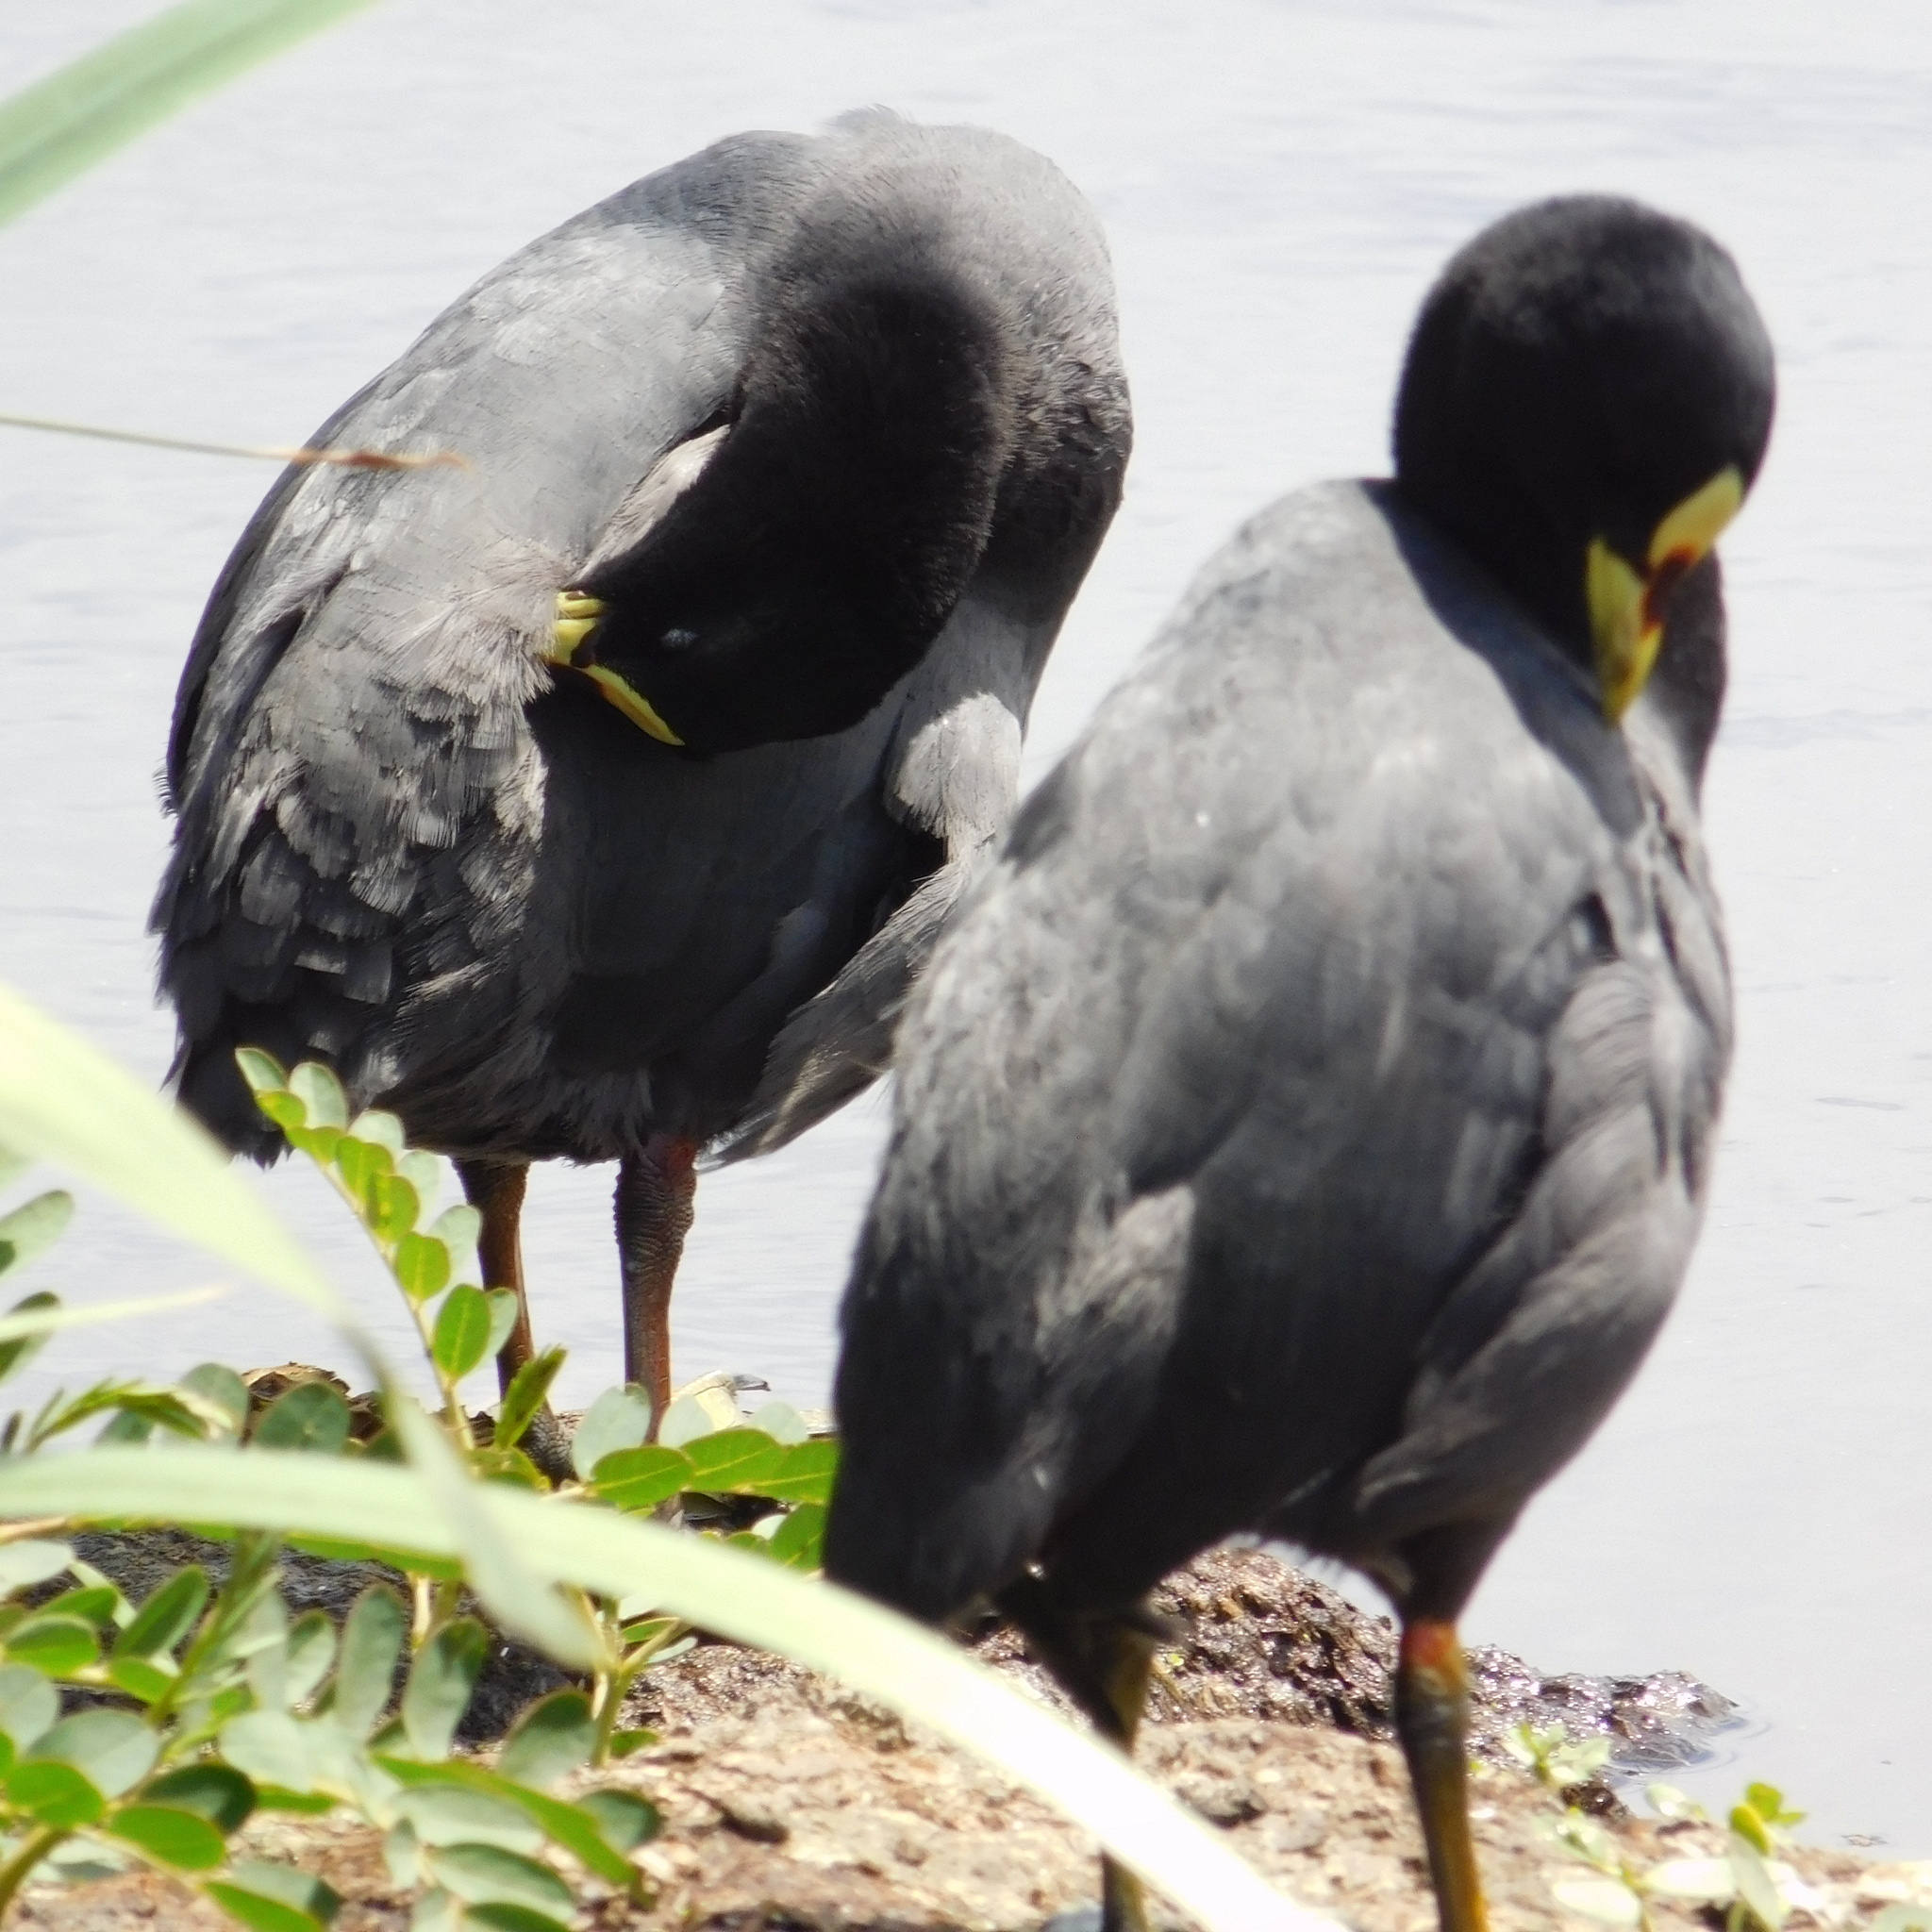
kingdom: Animalia
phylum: Chordata
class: Aves
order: Gruiformes
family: Rallidae
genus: Fulica
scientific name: Fulica armillata
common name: Red-gartered coot
